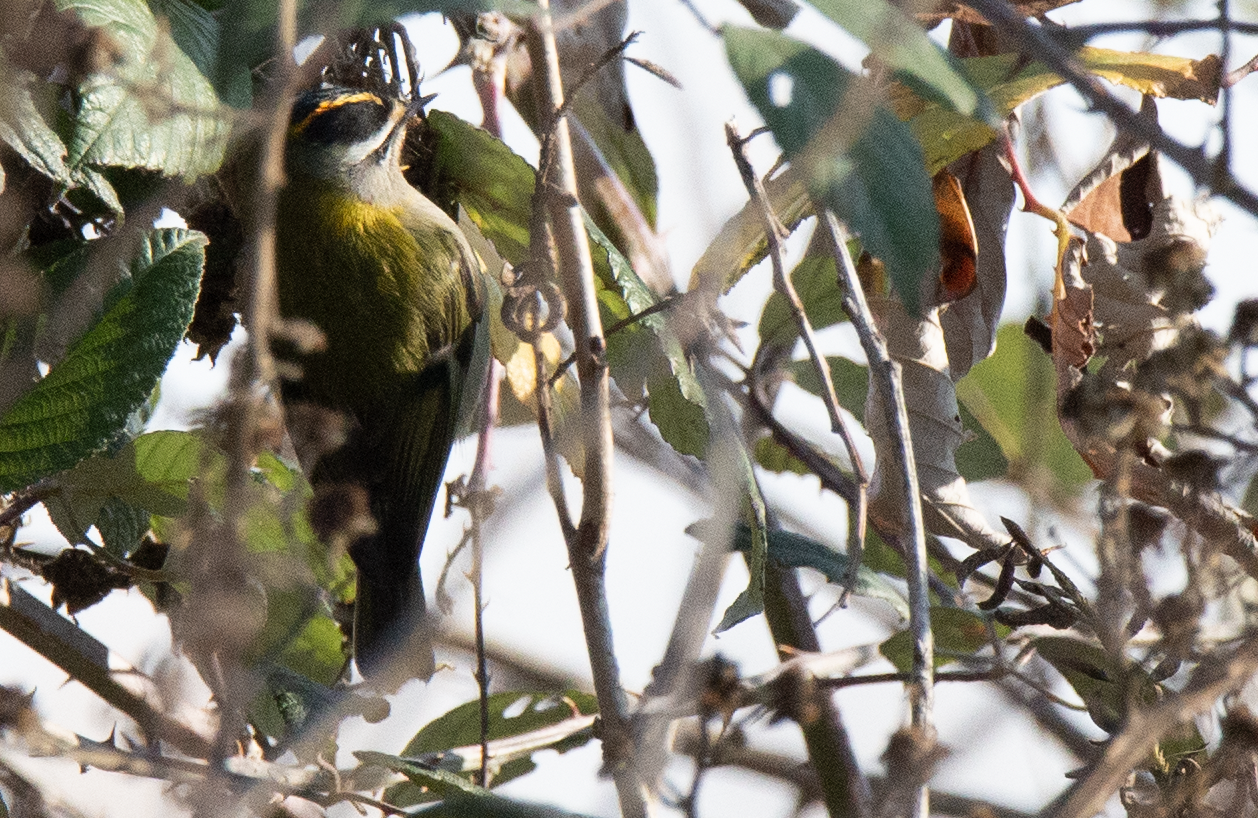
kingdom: Animalia
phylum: Chordata
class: Aves
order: Passeriformes
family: Regulidae
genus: Regulus
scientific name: Regulus ignicapilla
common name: Firecrest
